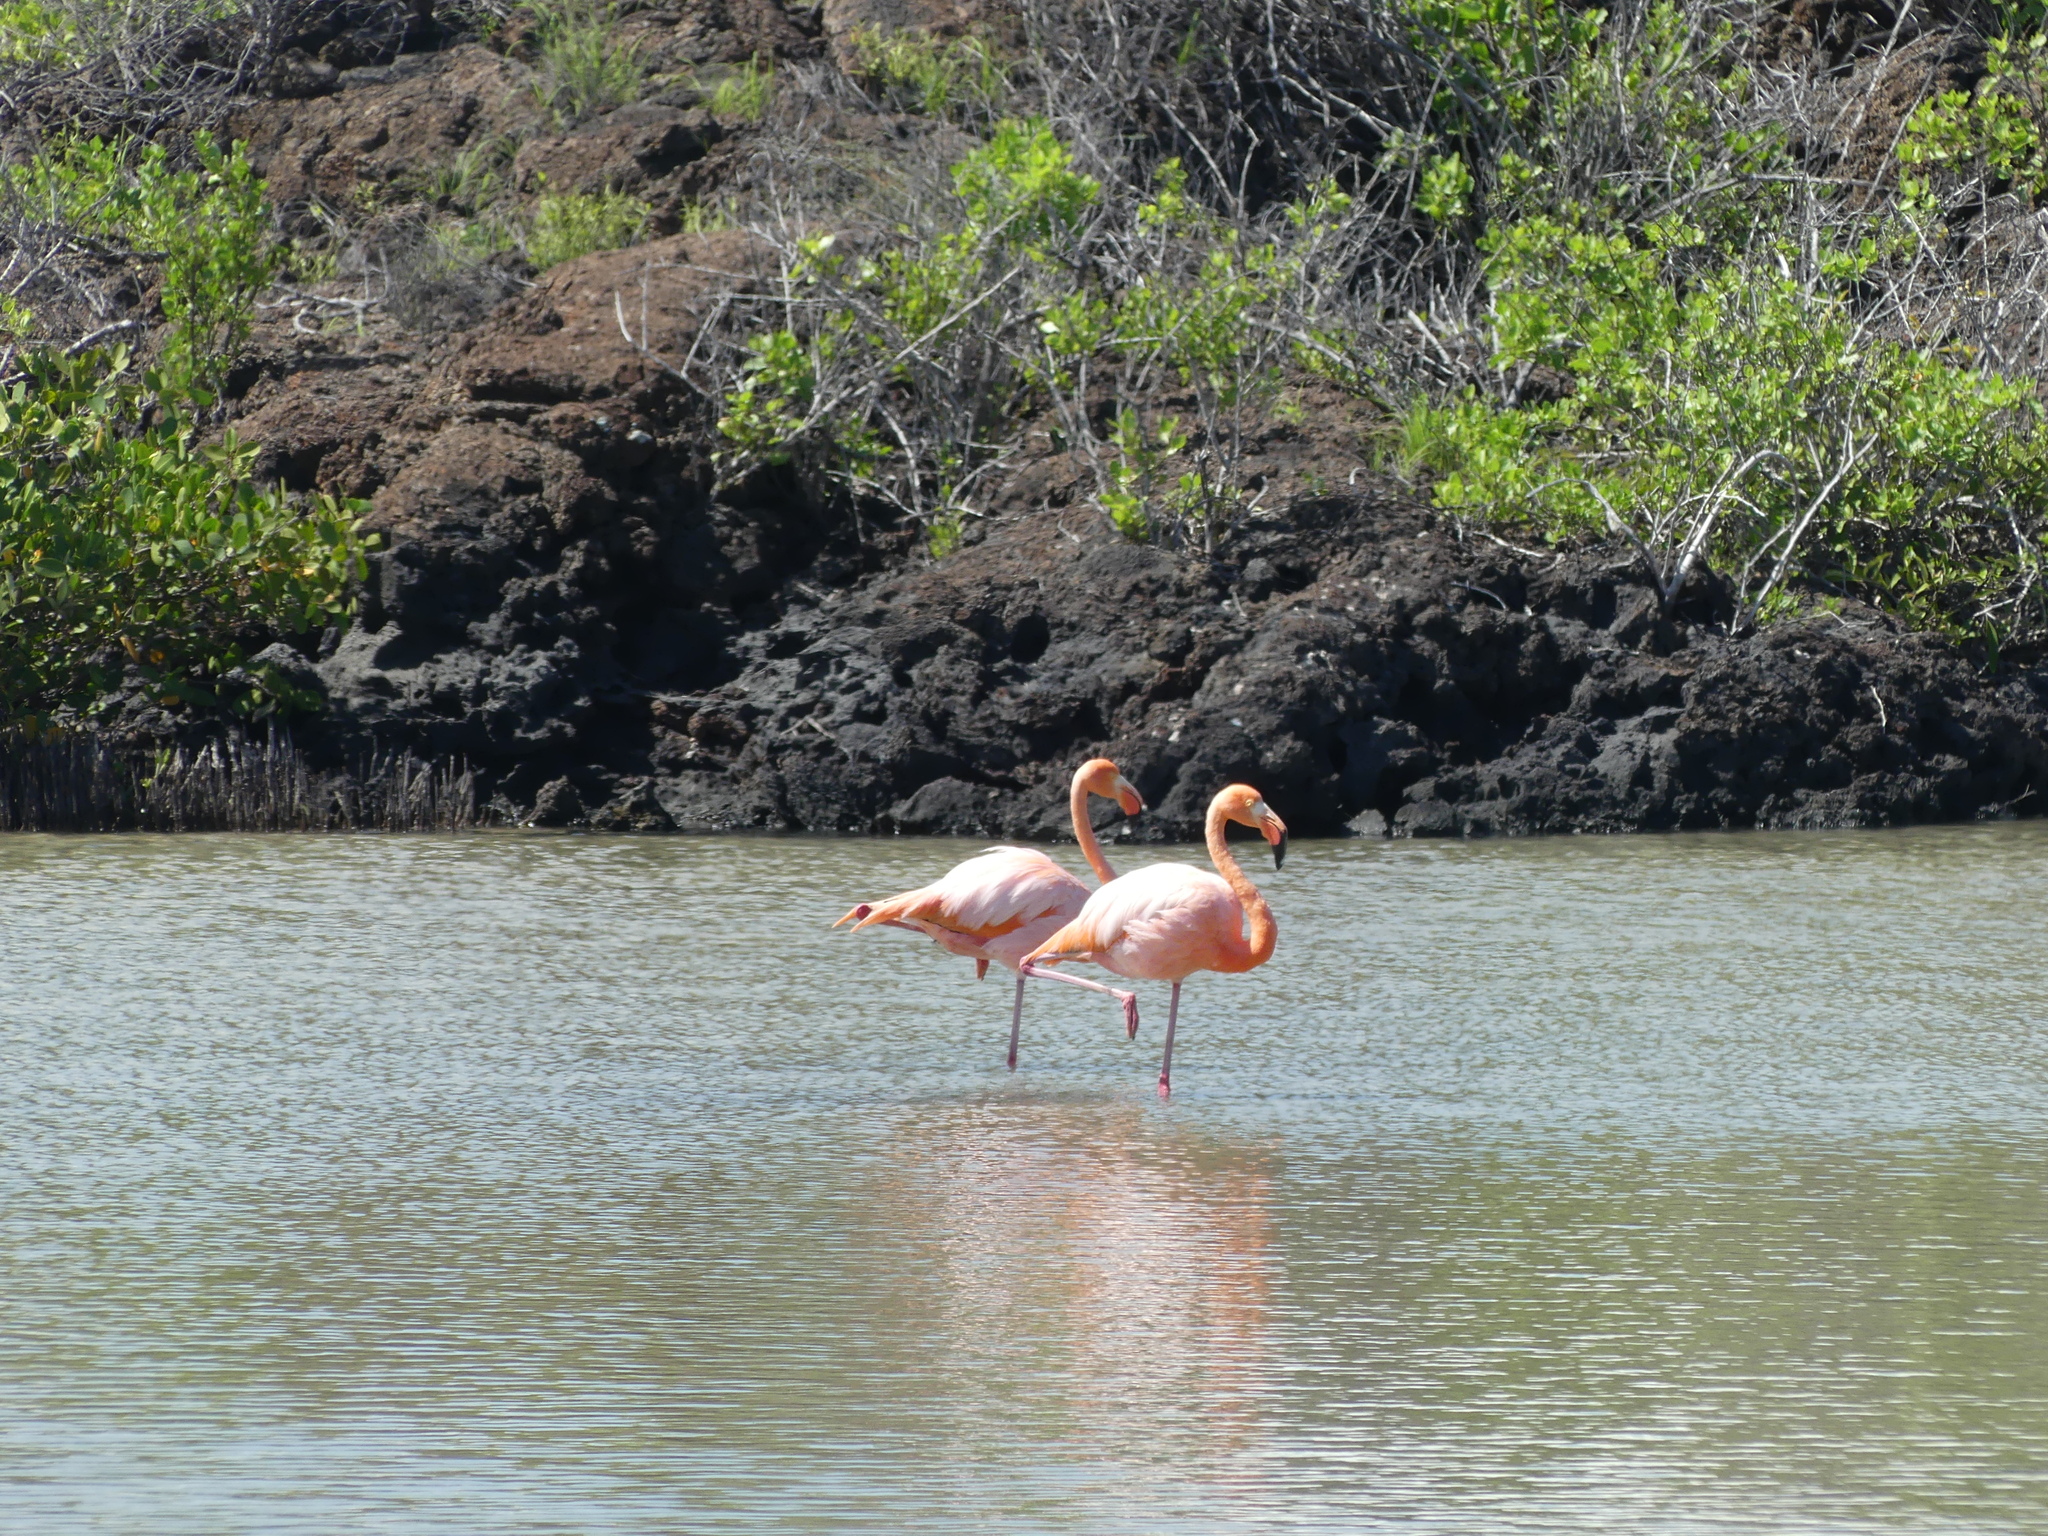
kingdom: Animalia
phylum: Chordata
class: Aves
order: Phoenicopteriformes
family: Phoenicopteridae
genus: Phoenicopterus
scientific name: Phoenicopterus ruber
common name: American flamingo
